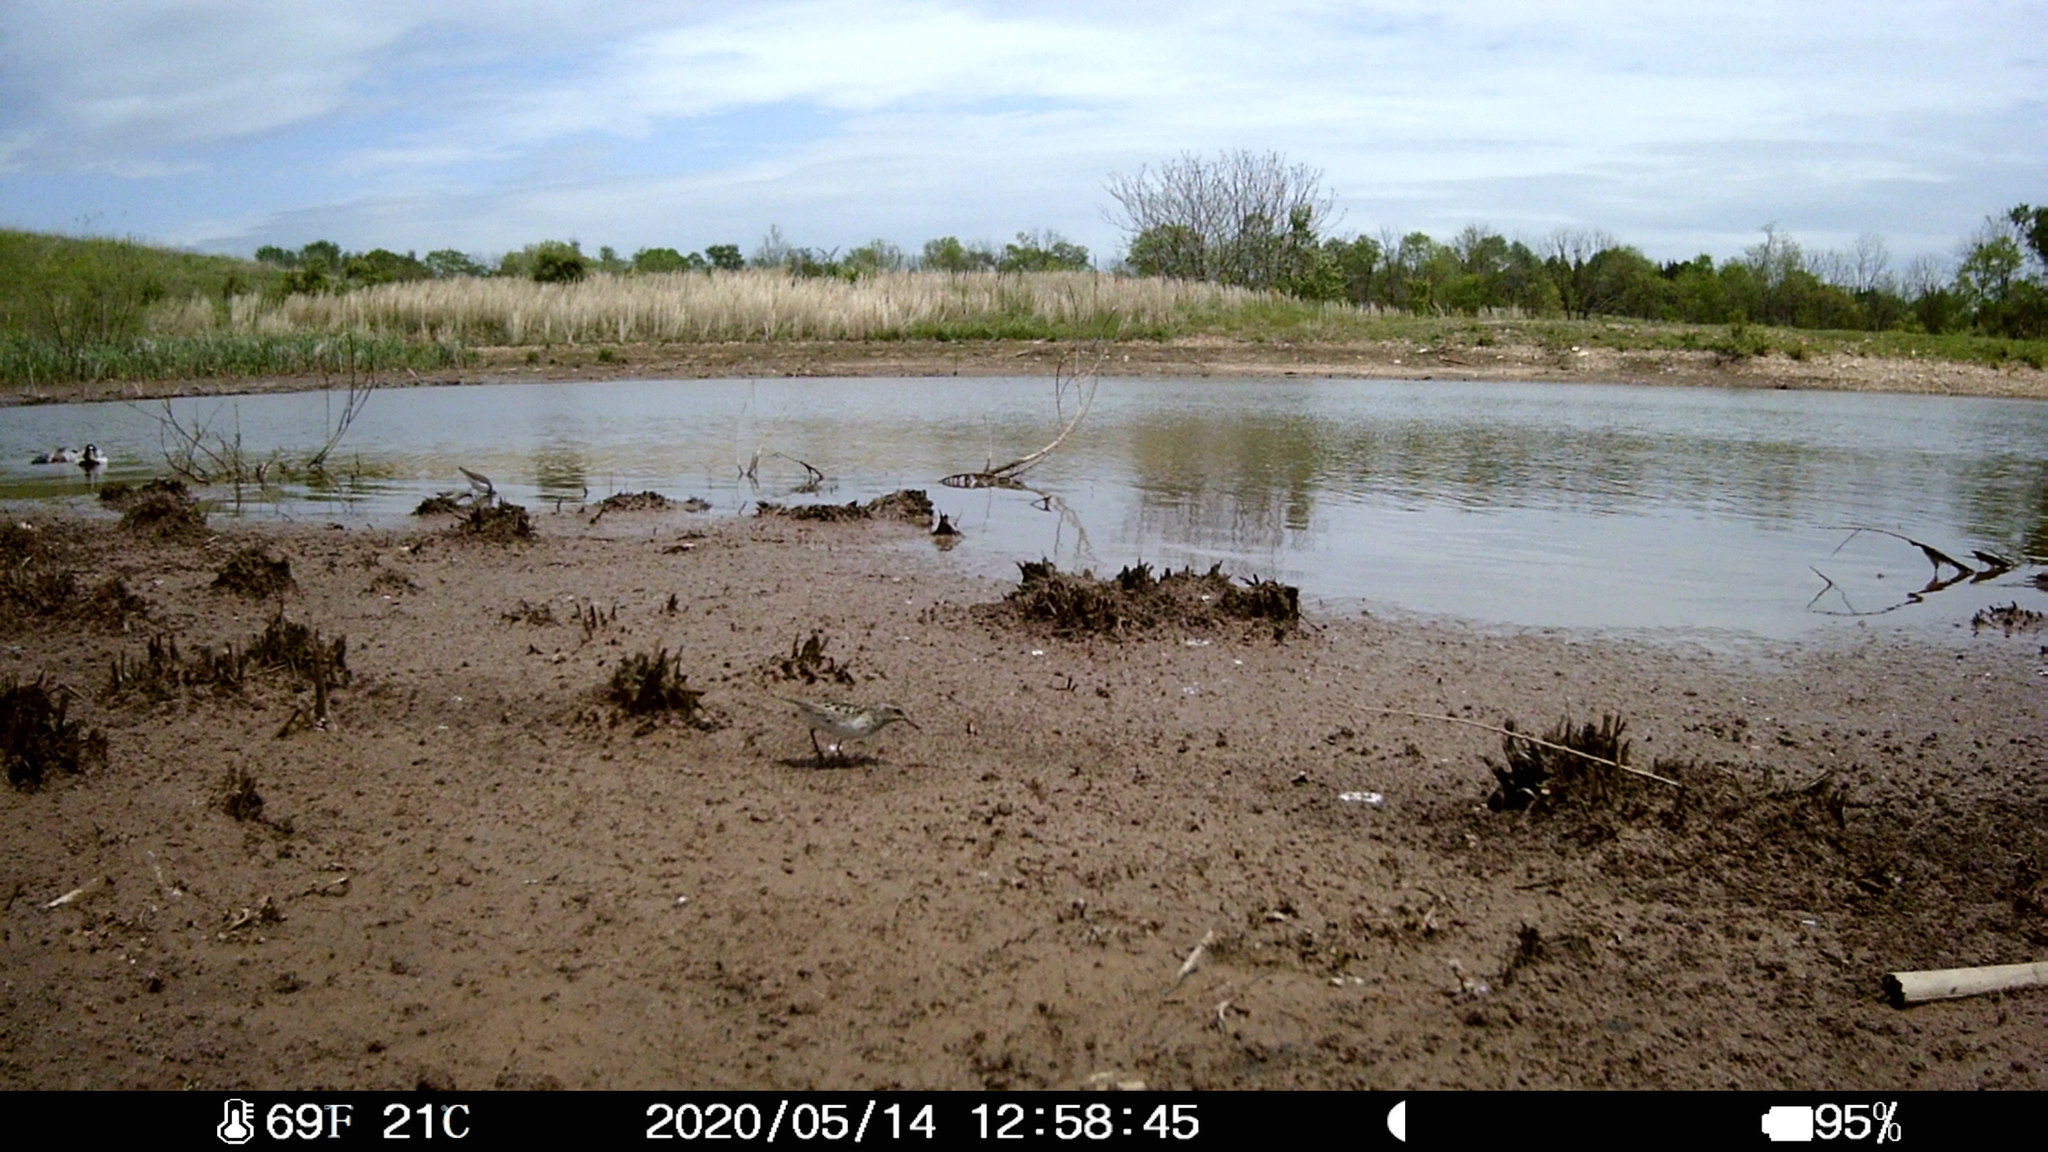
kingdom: Animalia
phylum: Chordata
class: Aves
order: Charadriiformes
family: Scolopacidae
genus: Calidris
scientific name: Calidris minutilla
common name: Least sandpiper
